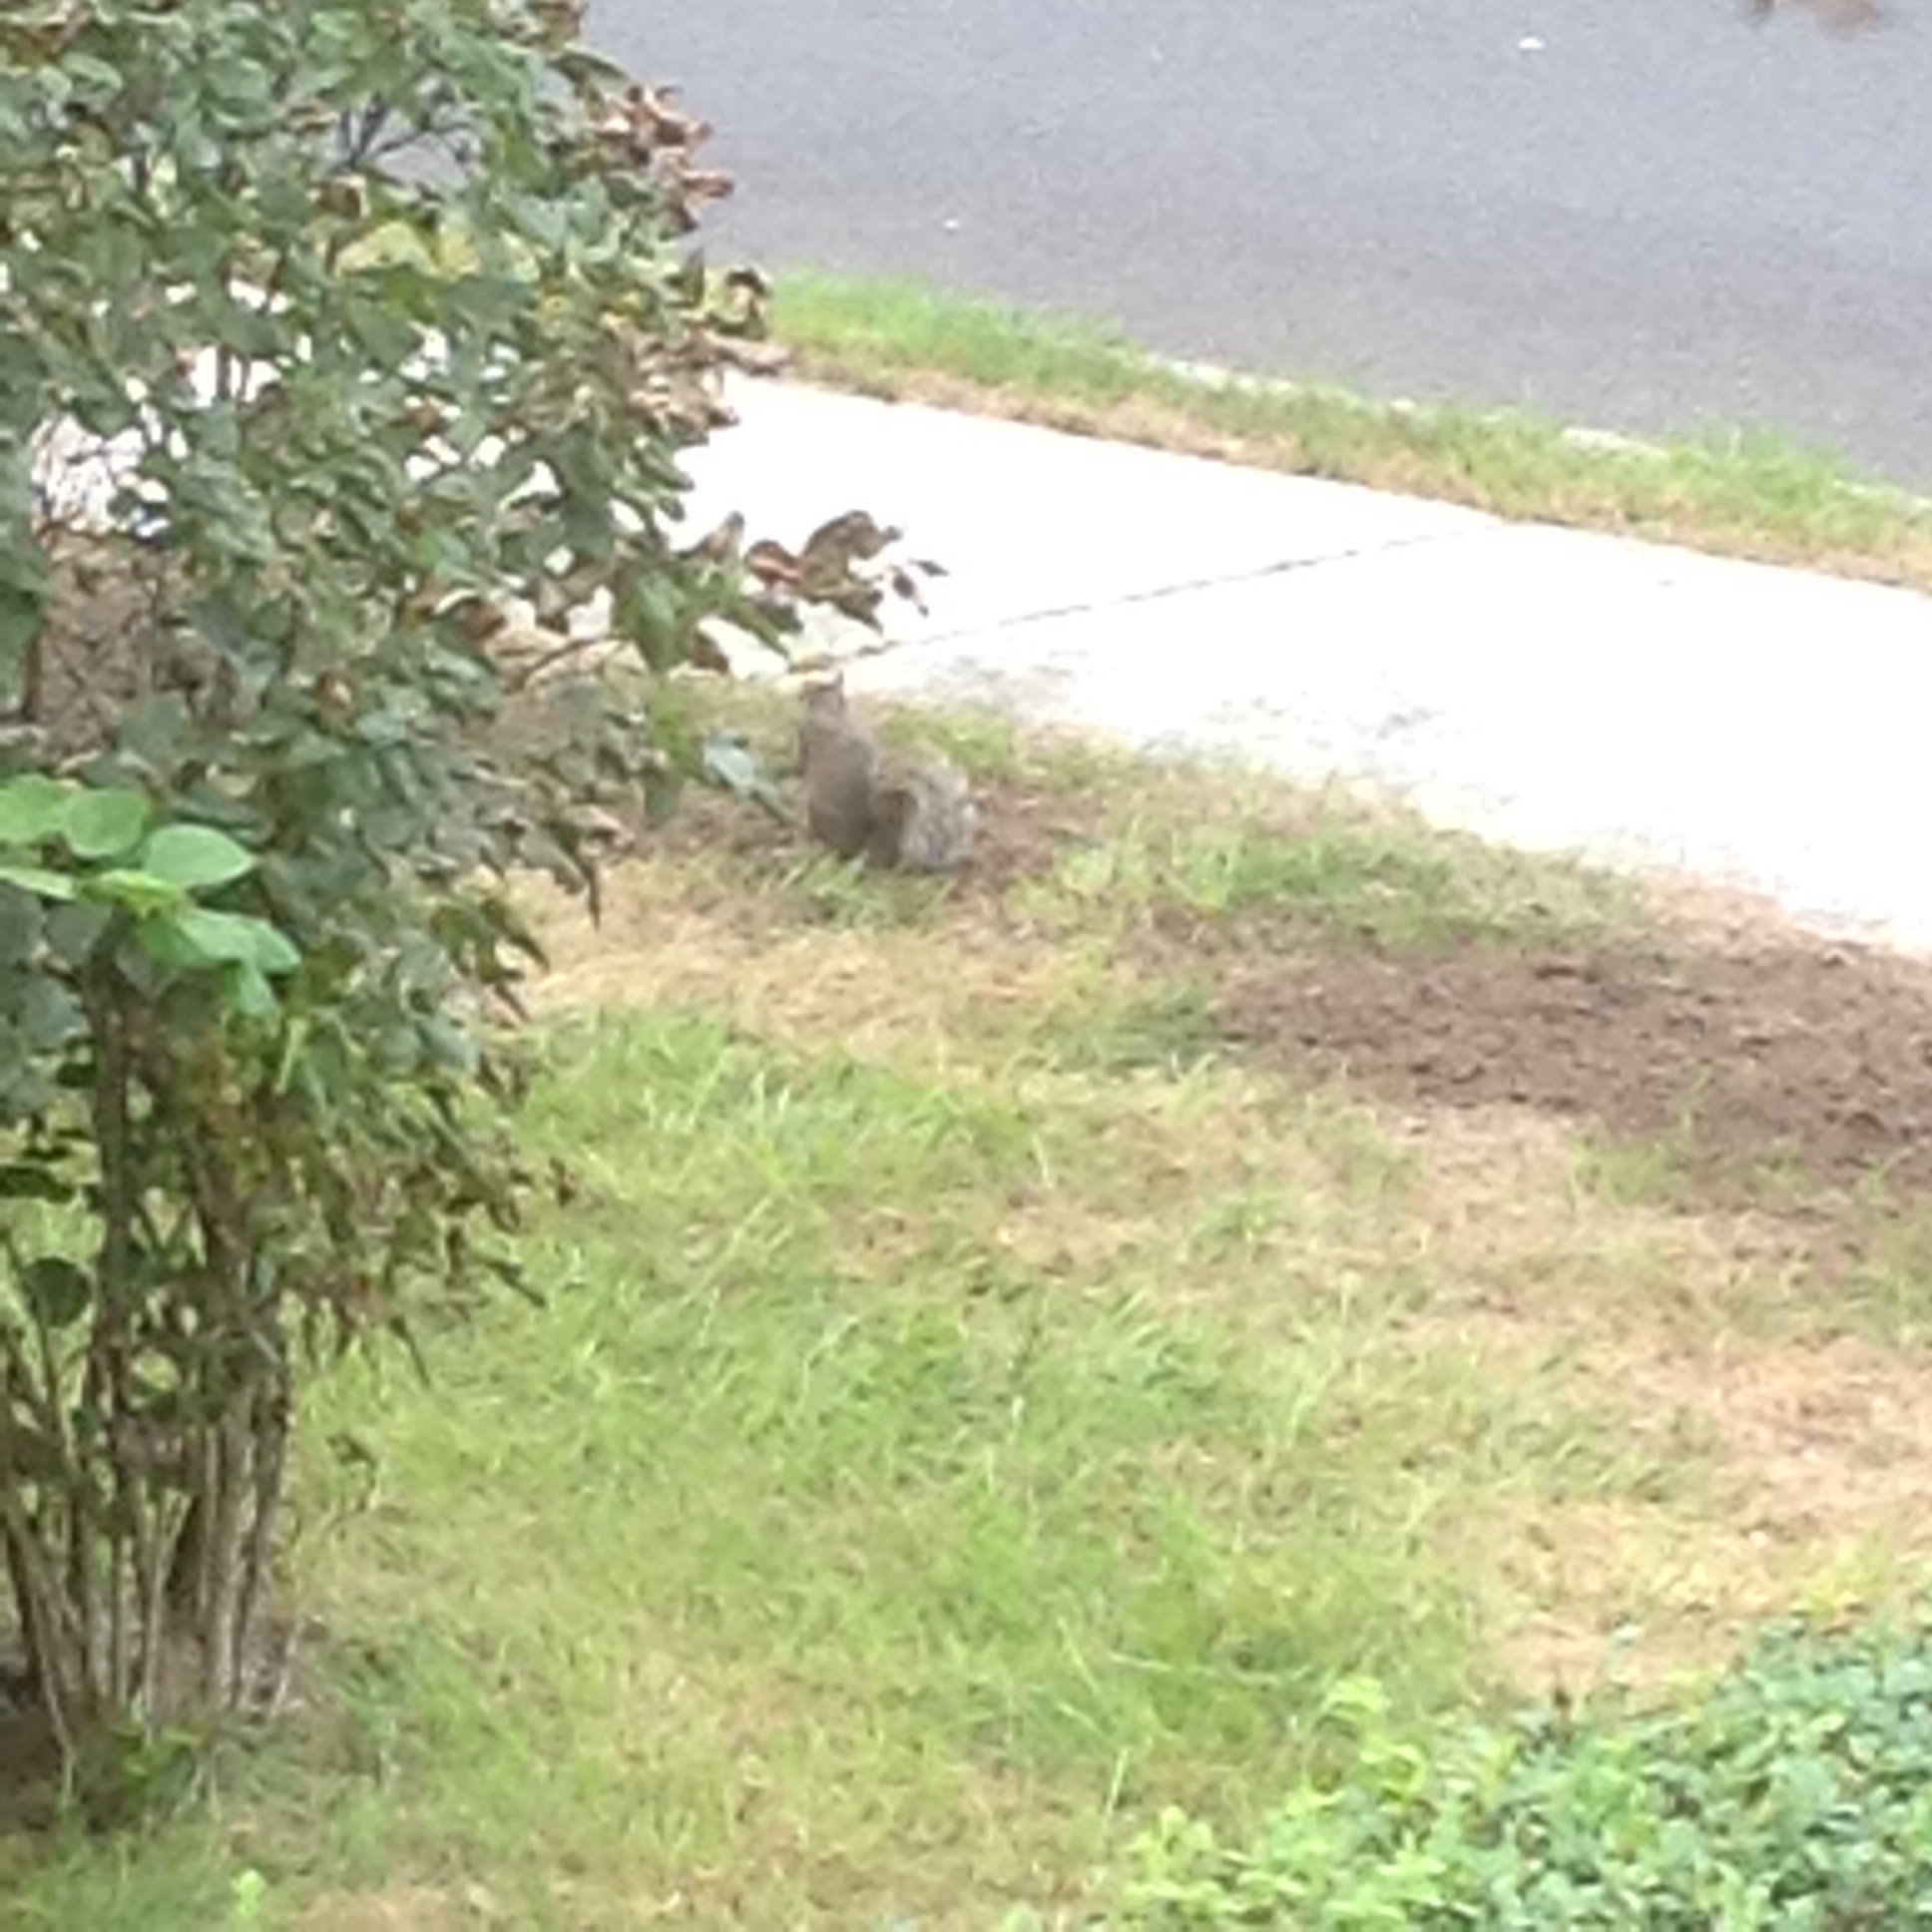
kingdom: Animalia
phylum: Chordata
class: Mammalia
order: Rodentia
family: Sciuridae
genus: Sciurus
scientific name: Sciurus carolinensis
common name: Eastern gray squirrel
